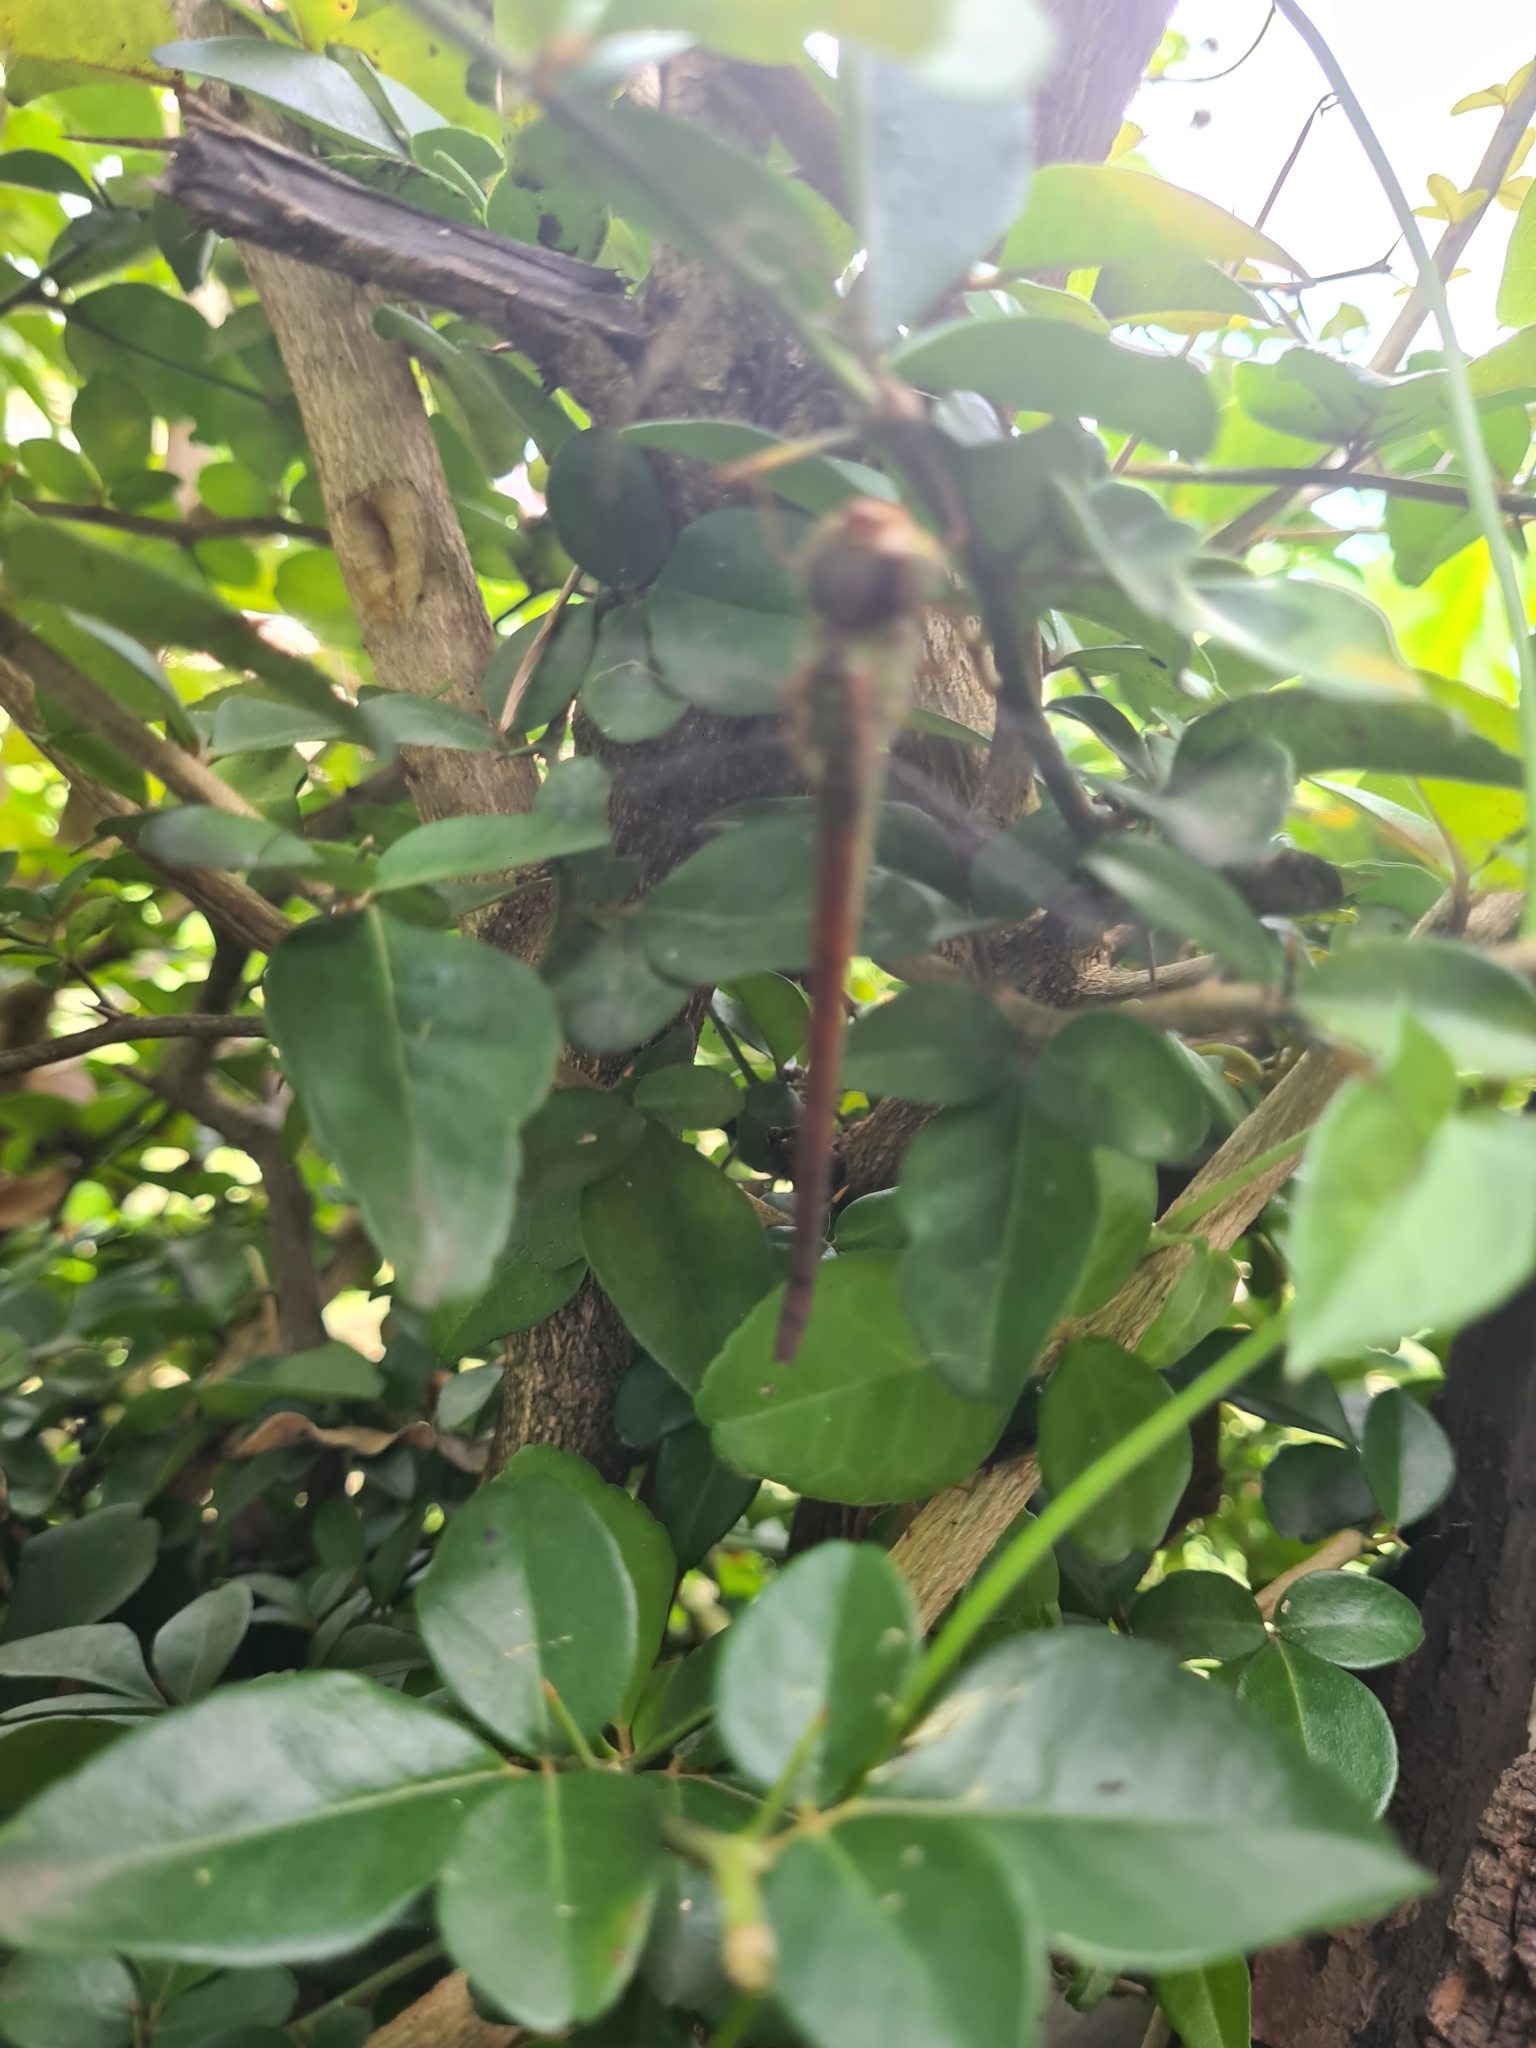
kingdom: Animalia
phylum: Arthropoda
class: Insecta
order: Odonata
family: Aeshnidae
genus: Triacanthagyna
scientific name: Triacanthagyna septima
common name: Pale-green darner
